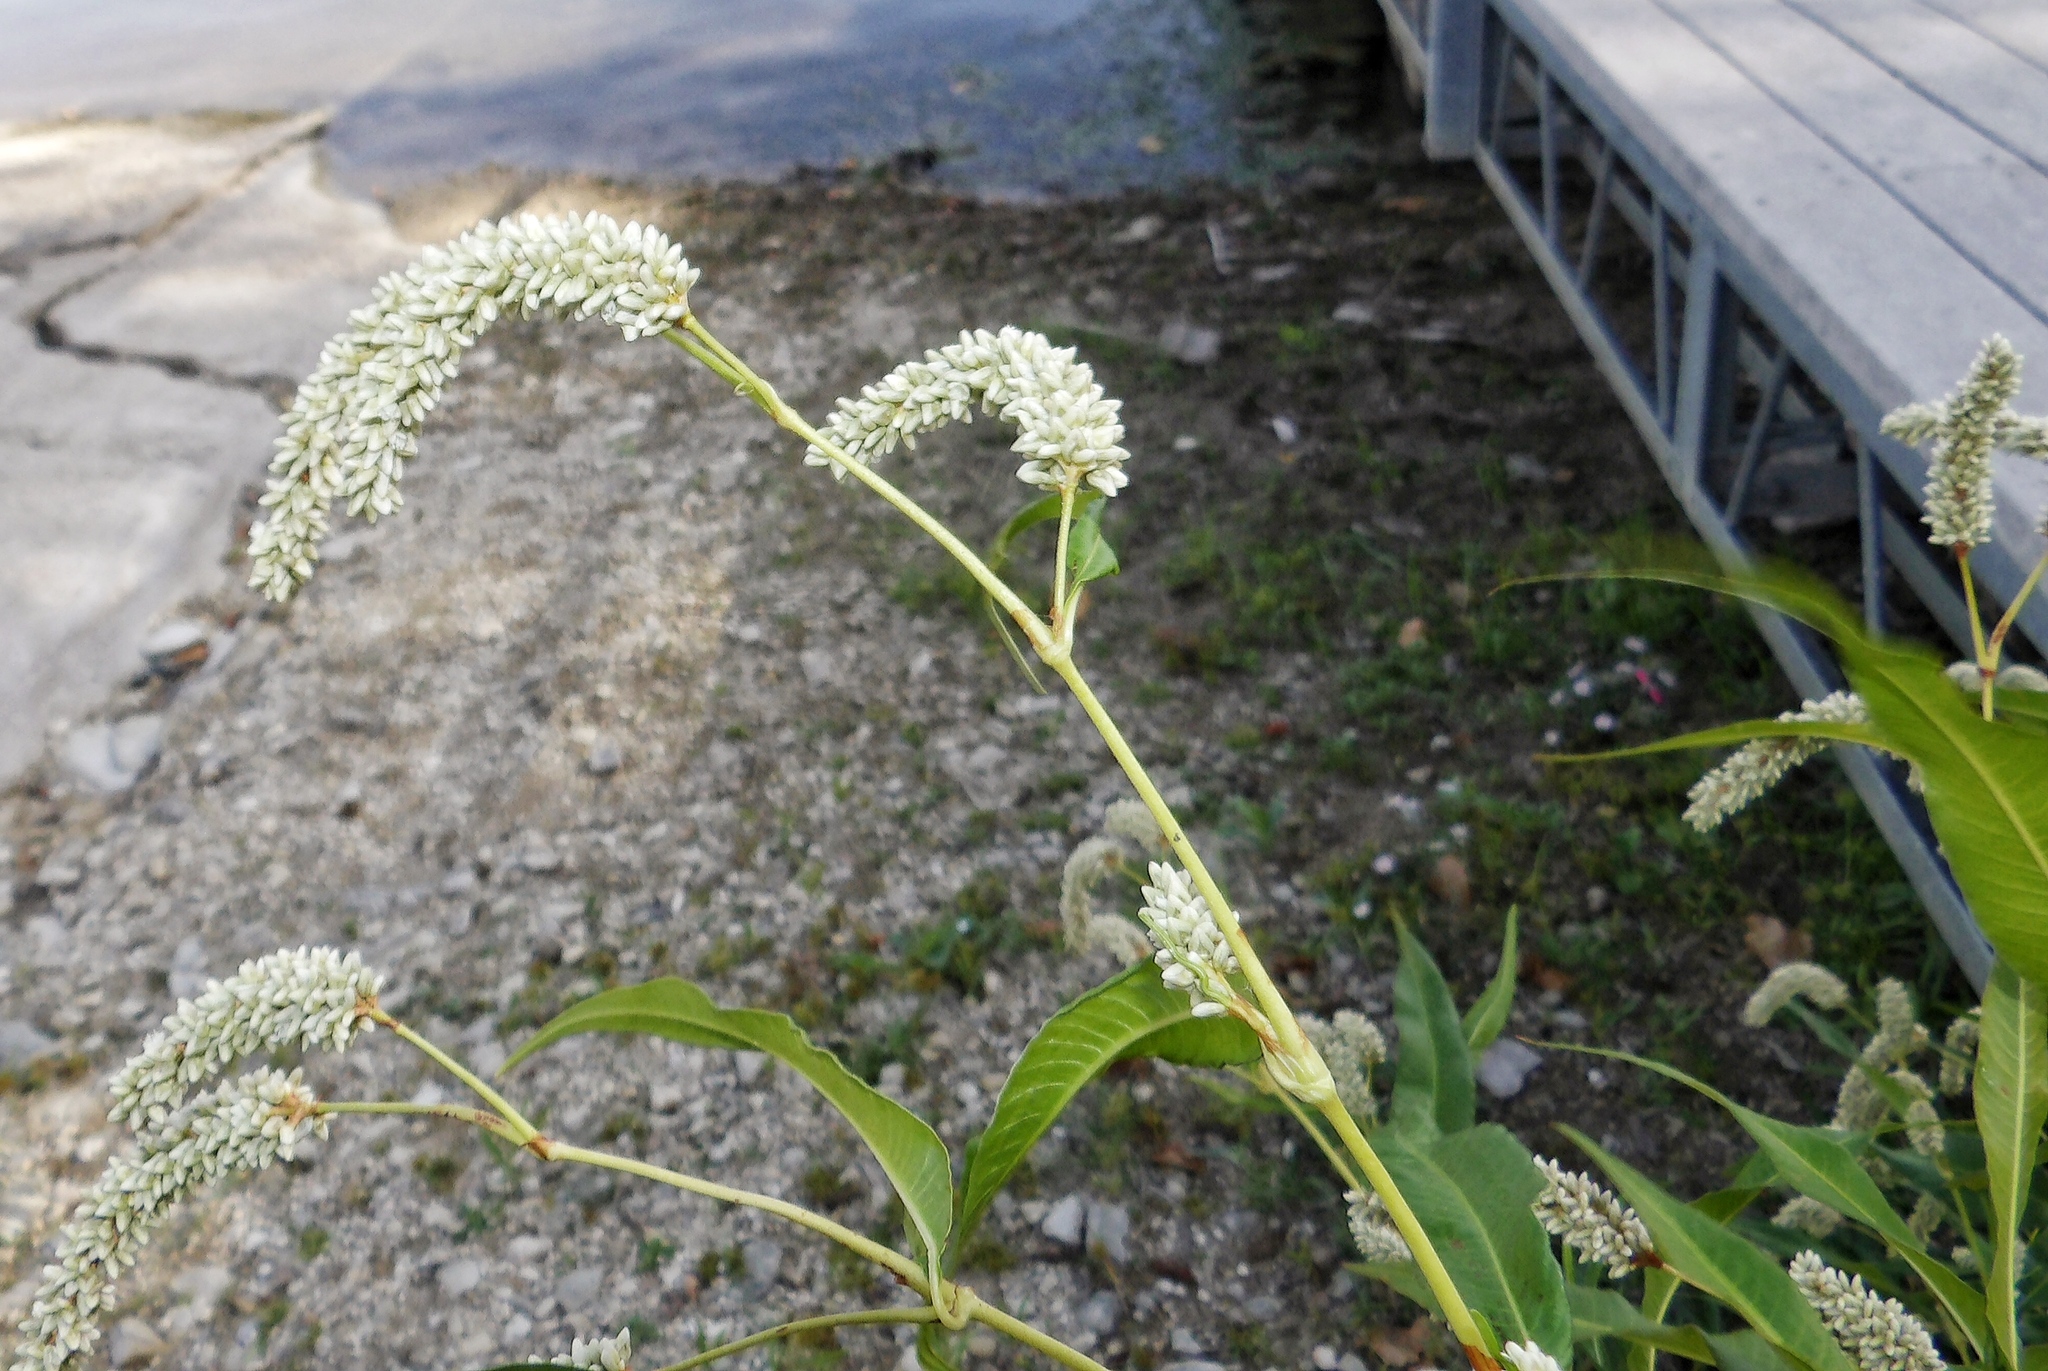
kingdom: Plantae
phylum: Tracheophyta
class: Magnoliopsida
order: Caryophyllales
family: Polygonaceae
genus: Persicaria
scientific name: Persicaria lapathifolia
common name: Curlytop knotweed
